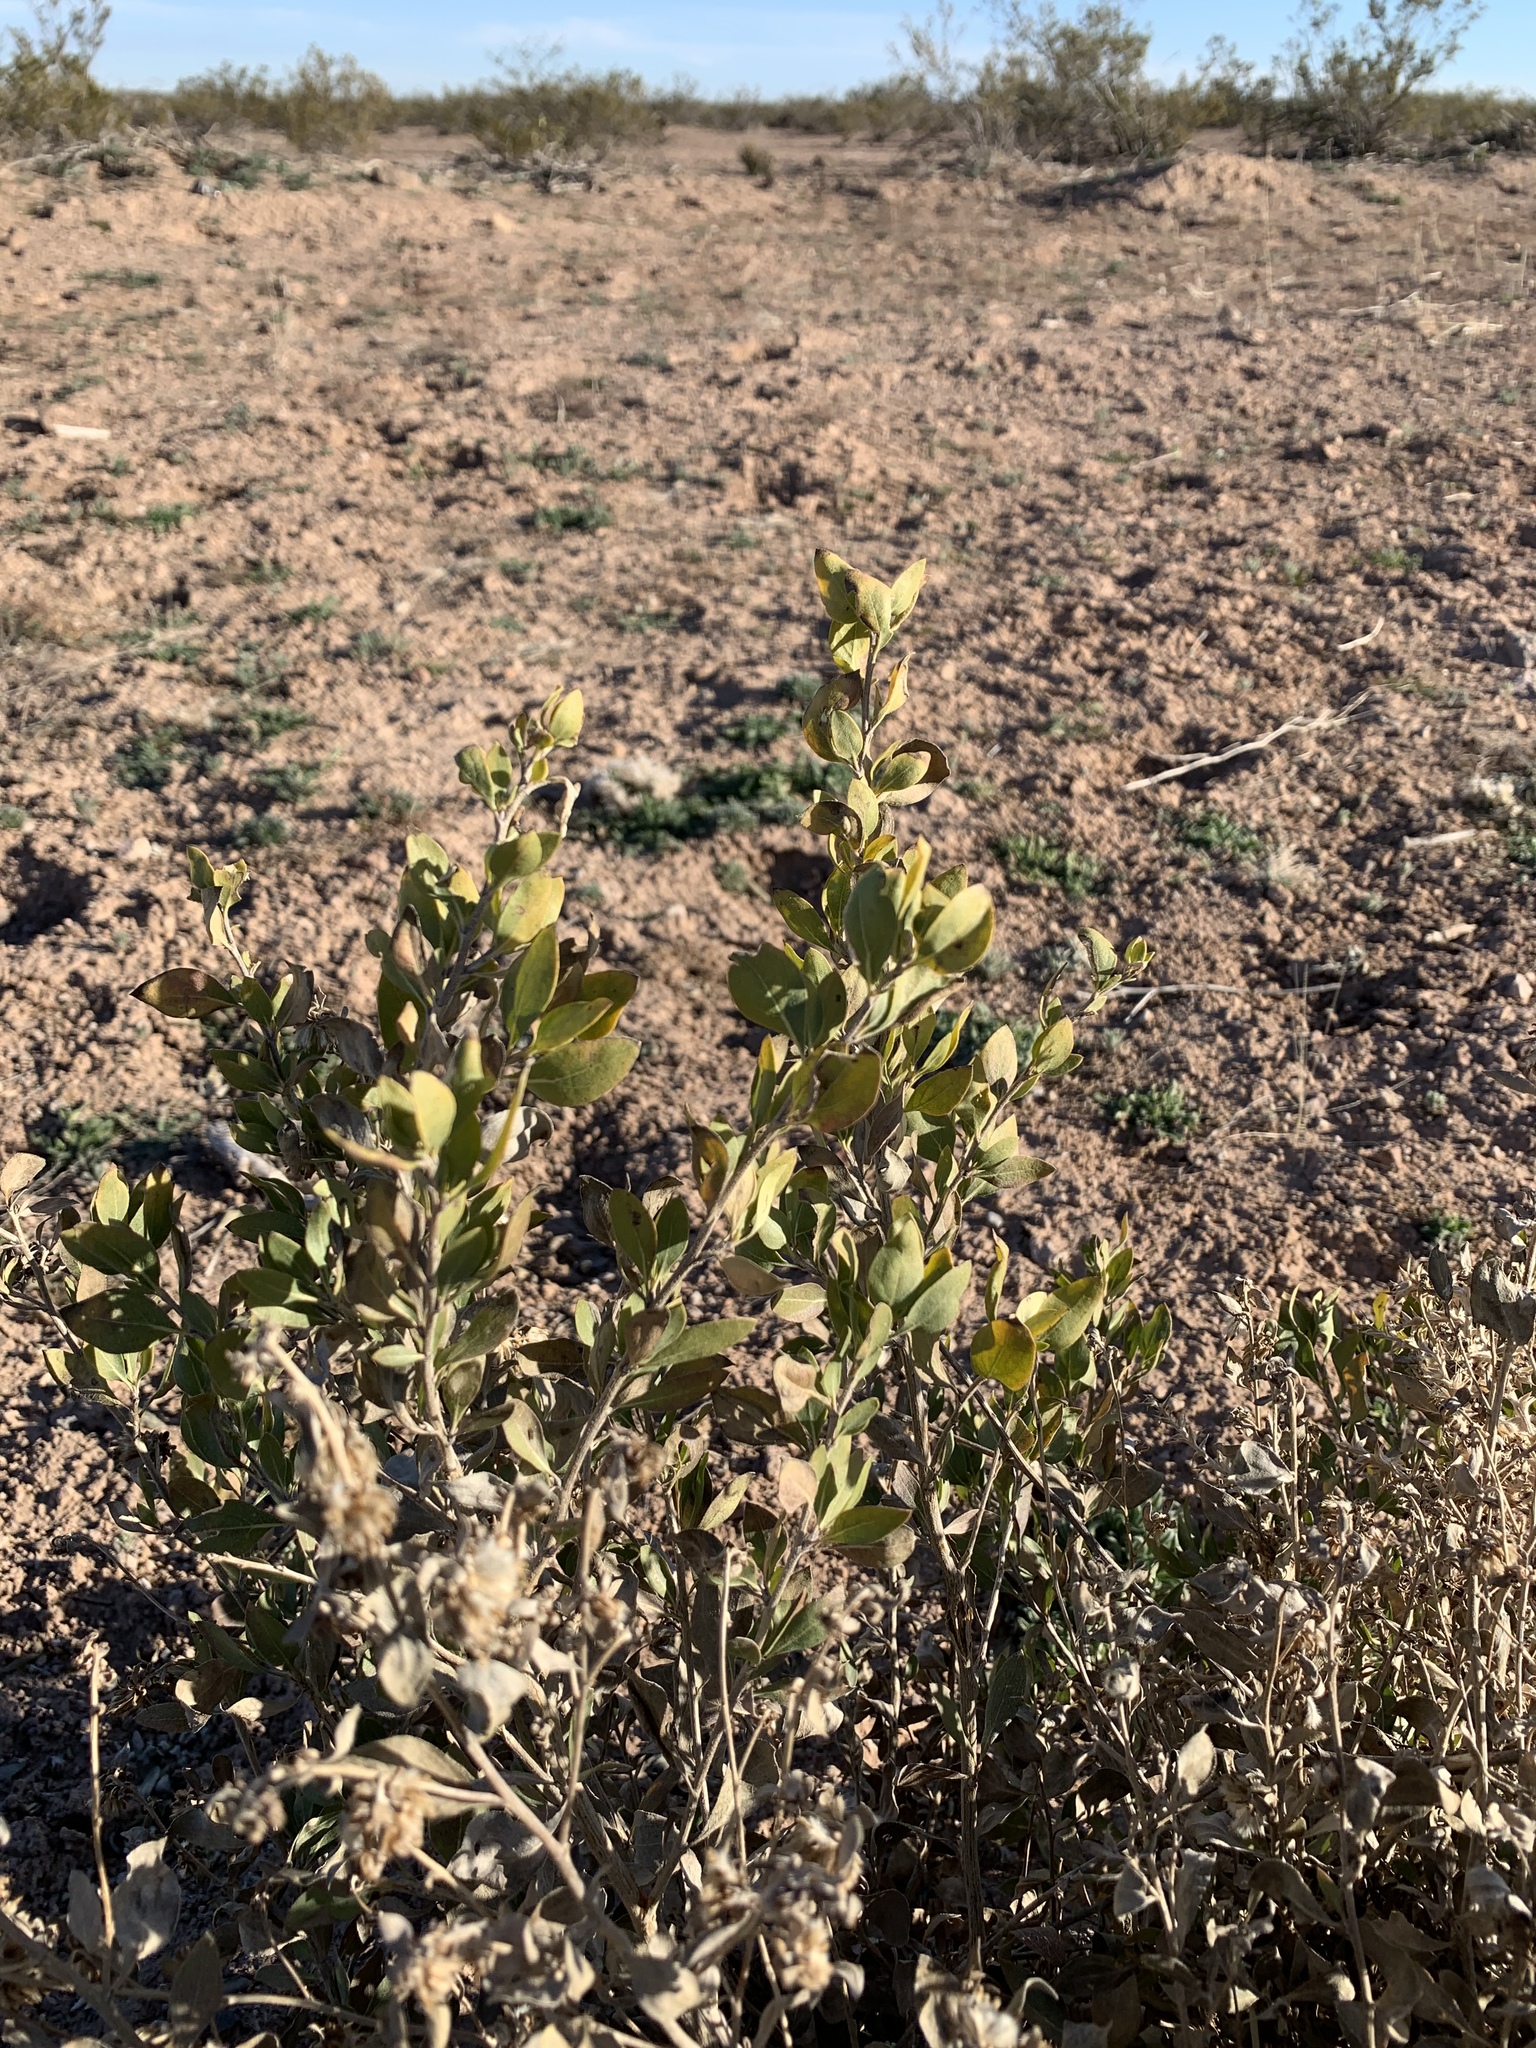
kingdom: Plantae
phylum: Tracheophyta
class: Magnoliopsida
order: Asterales
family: Asteraceae
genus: Flourensia
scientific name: Flourensia cernua
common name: Varnishbush
